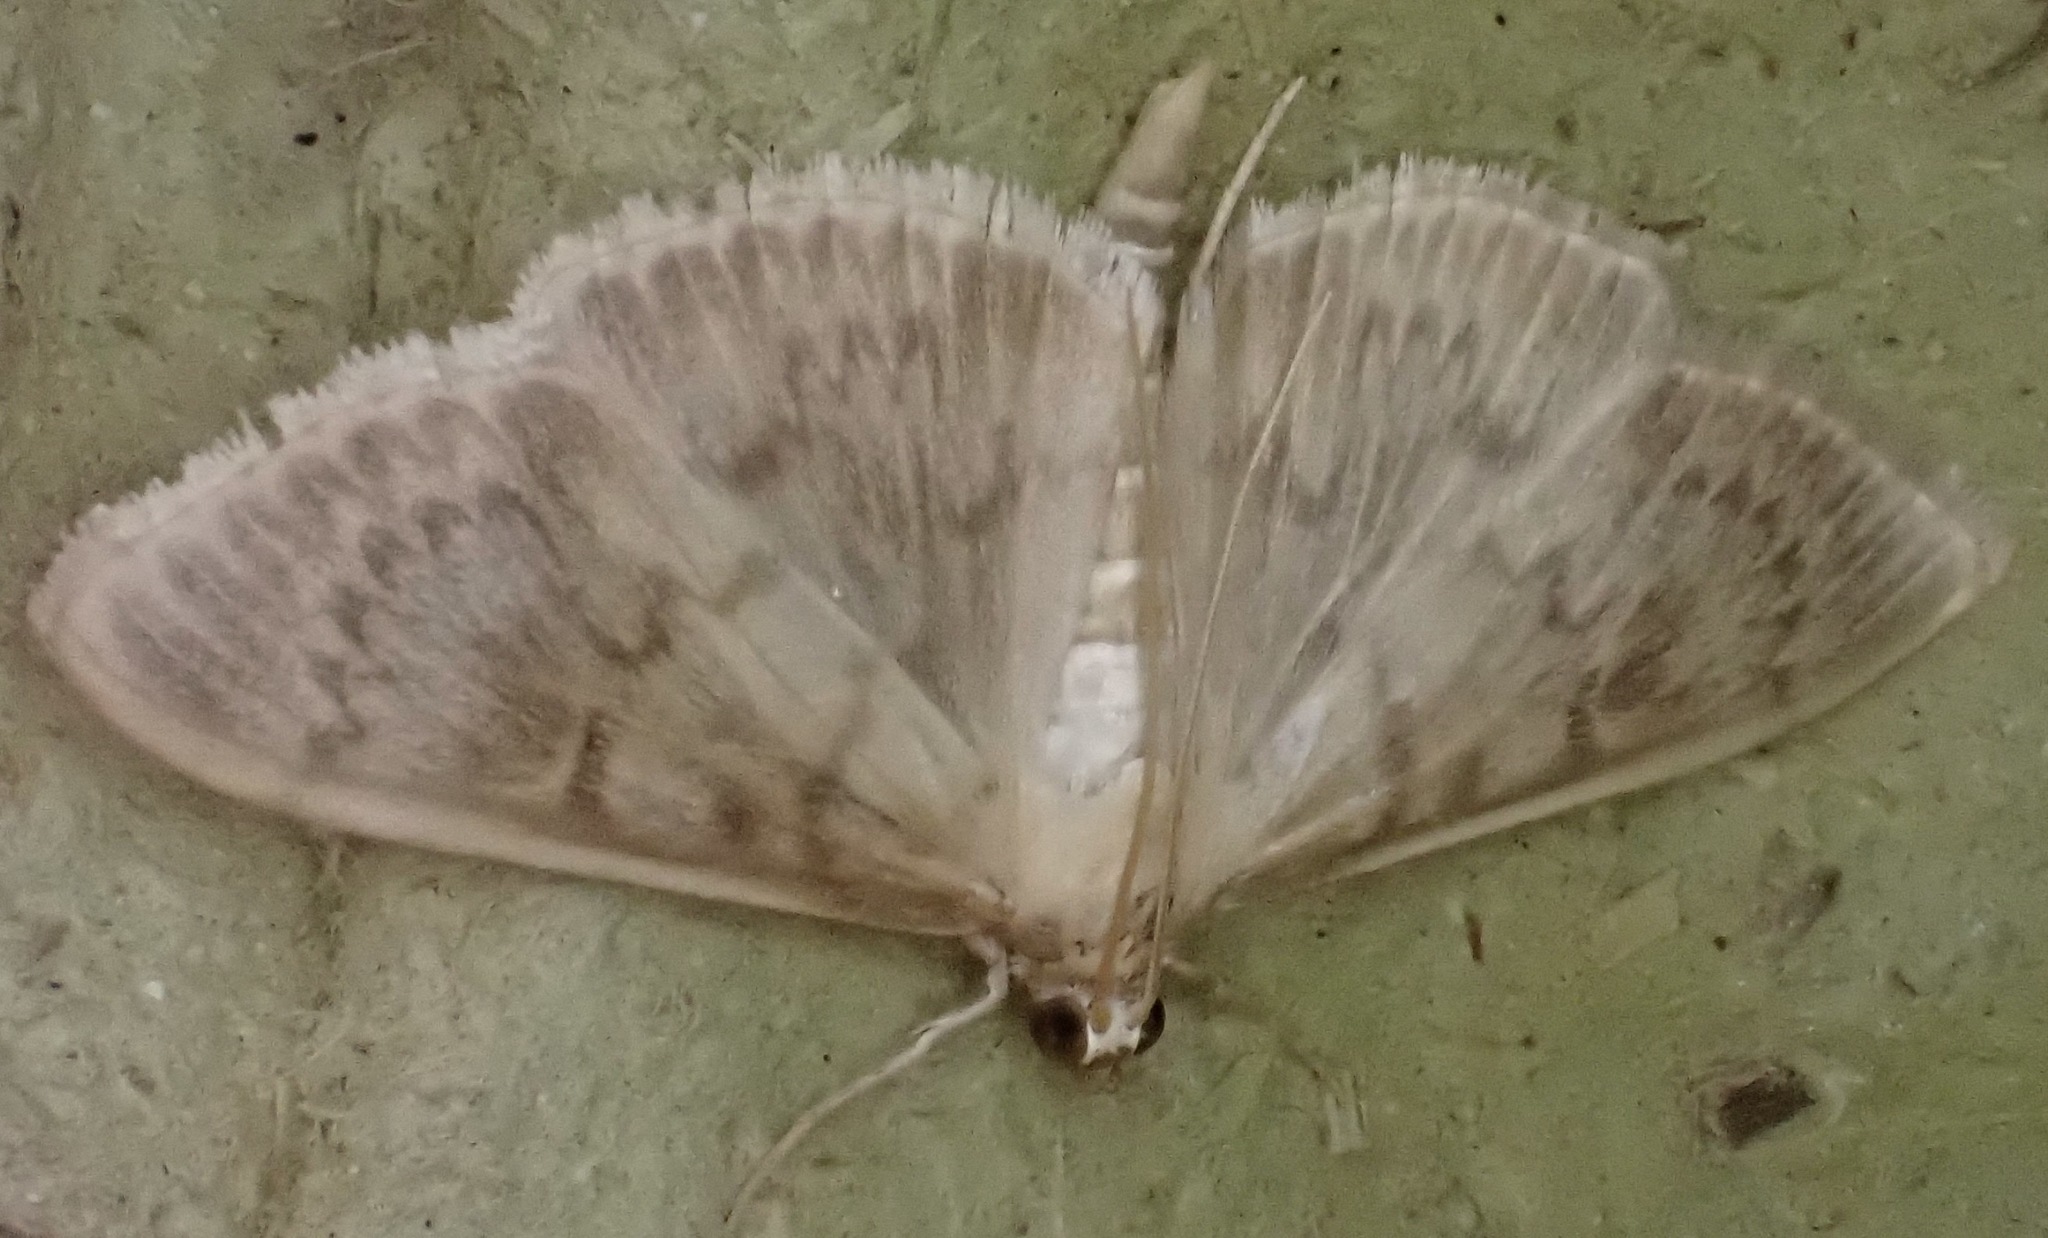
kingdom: Animalia
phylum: Arthropoda
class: Insecta
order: Lepidoptera
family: Crambidae
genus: Patania
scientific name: Patania ruralis
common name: Mother of pearl
